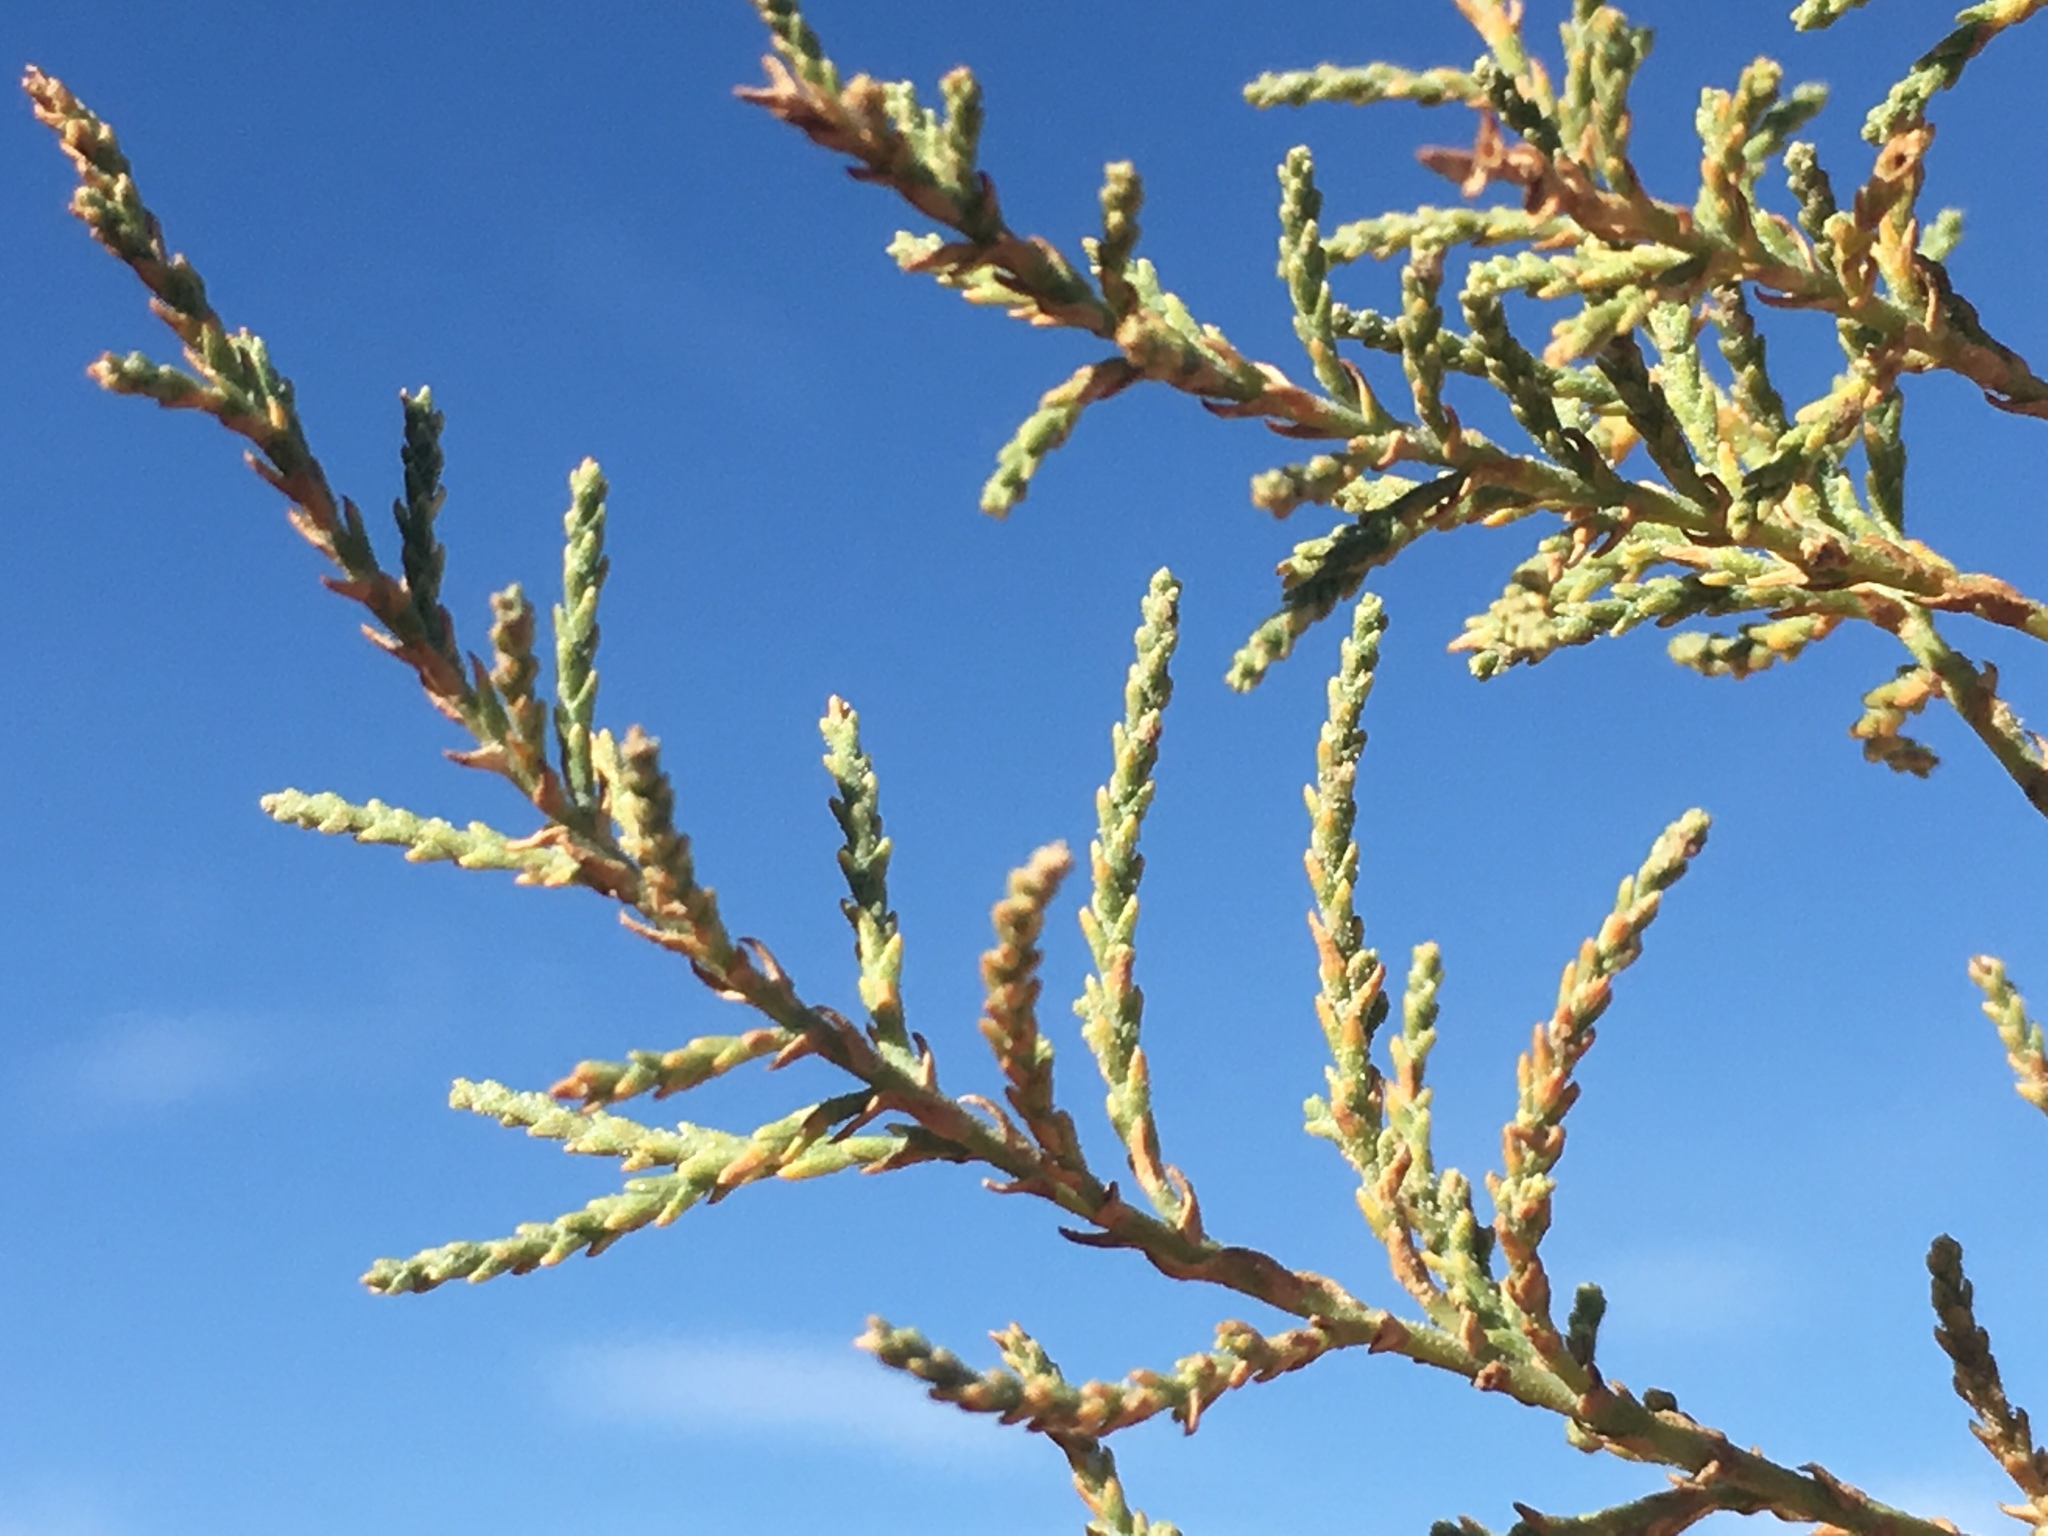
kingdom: Plantae
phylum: Tracheophyta
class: Magnoliopsida
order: Caryophyllales
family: Tamaricaceae
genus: Tamarix
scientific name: Tamarix
